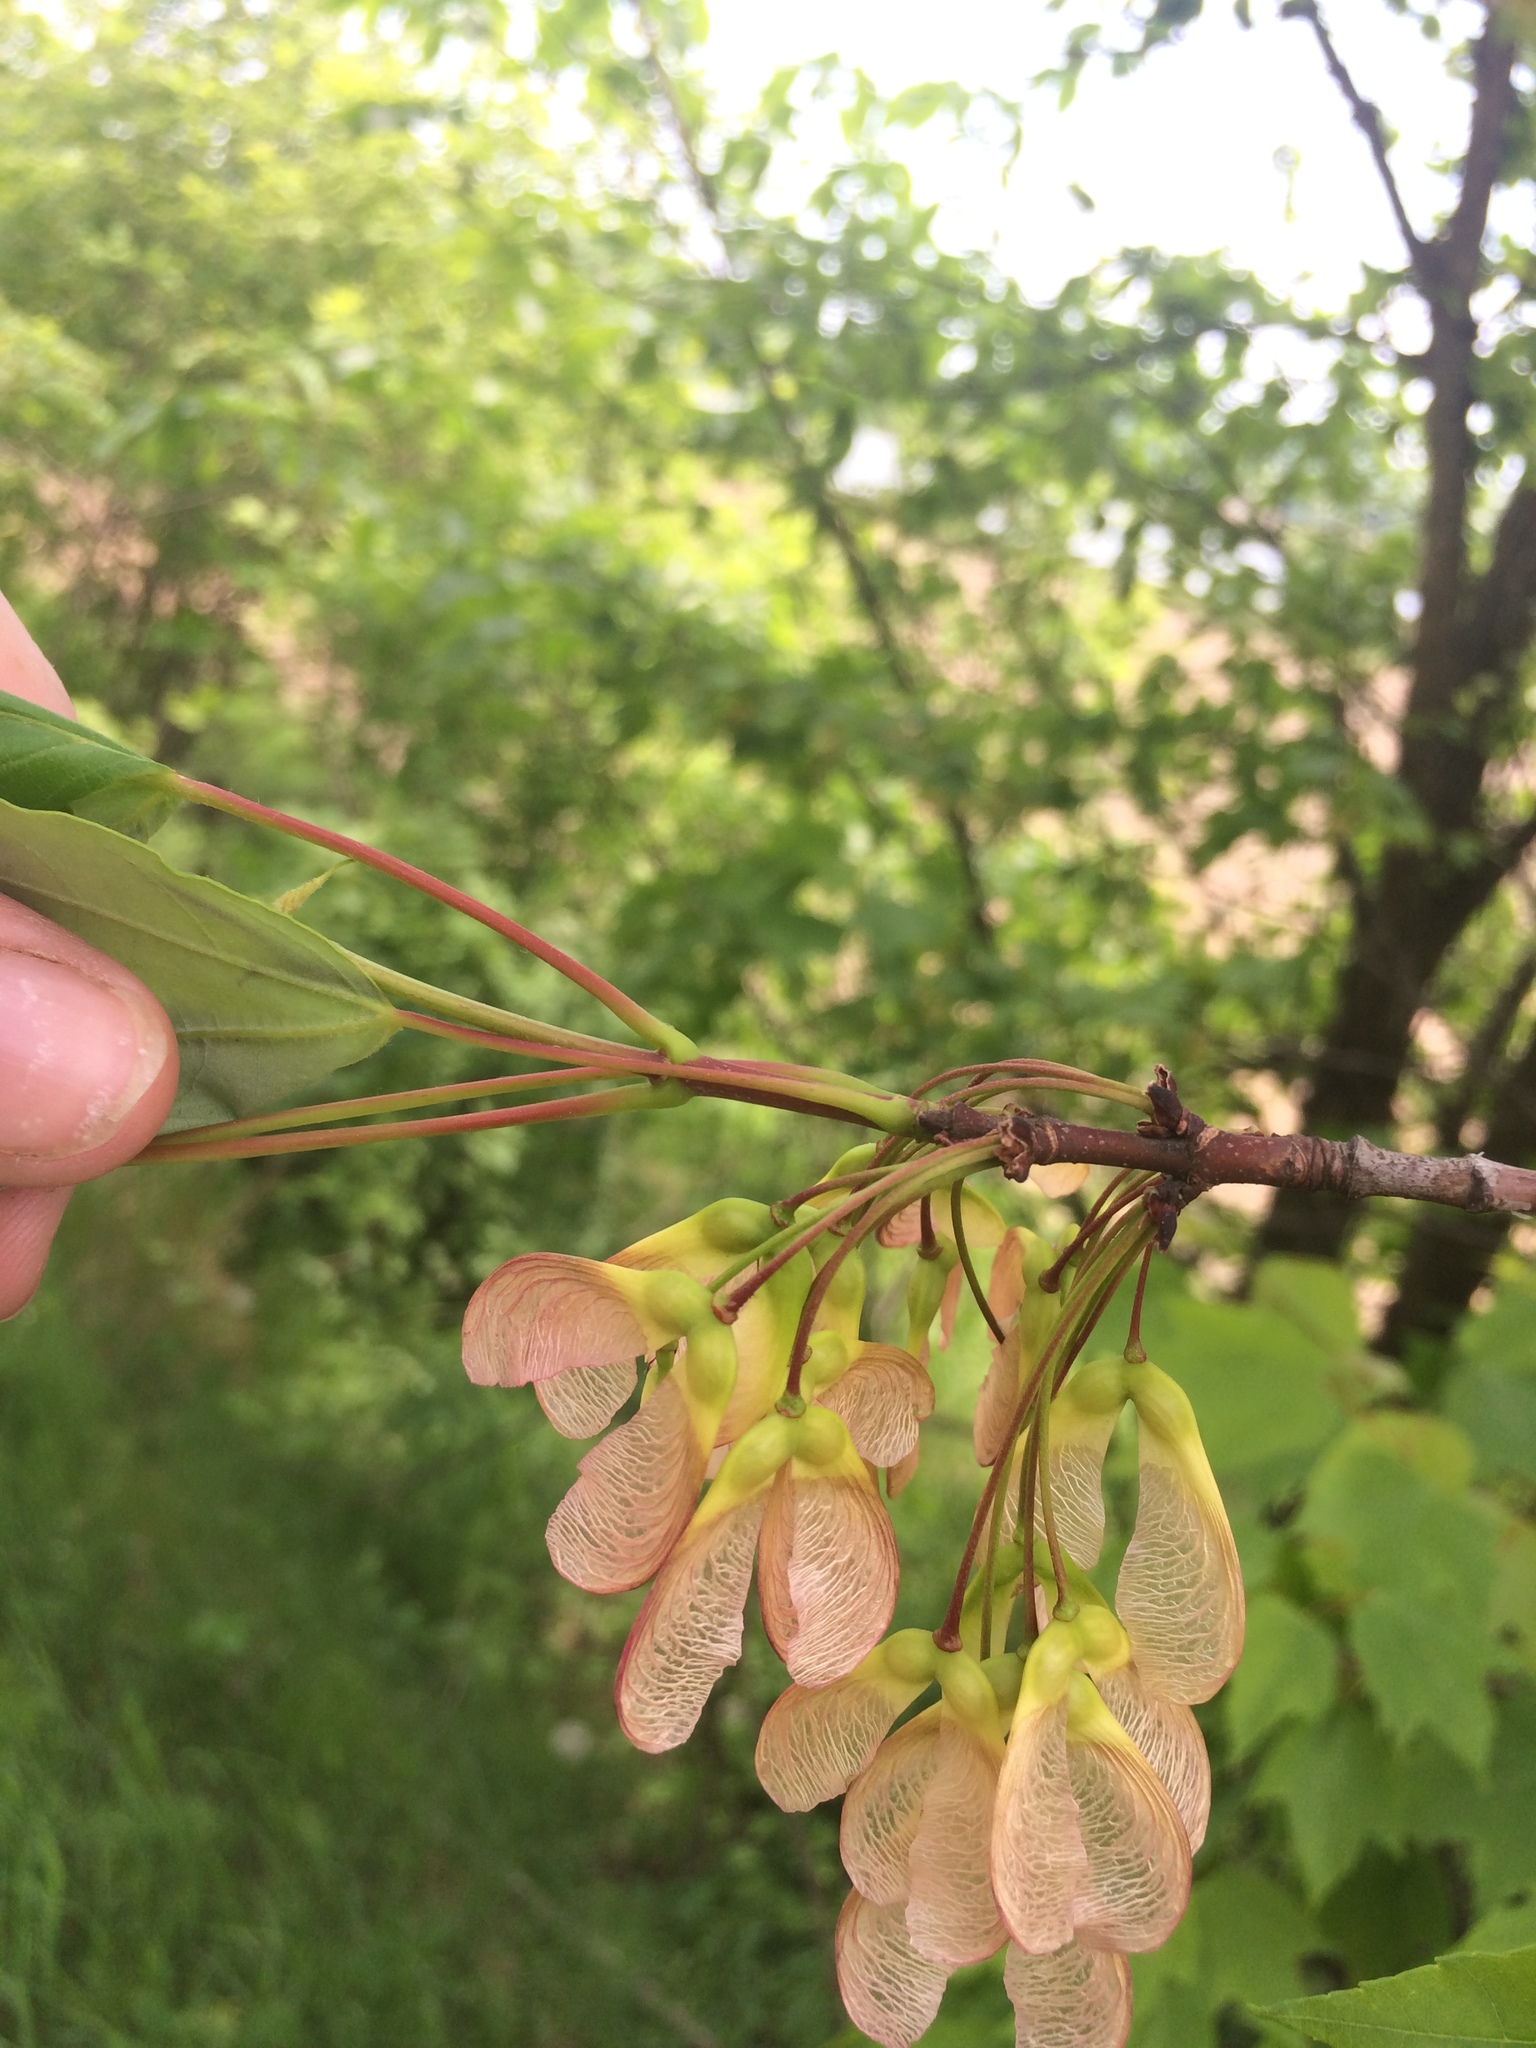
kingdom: Plantae
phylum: Tracheophyta
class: Magnoliopsida
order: Sapindales
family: Sapindaceae
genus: Acer
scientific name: Acer rubrum
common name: Red maple
